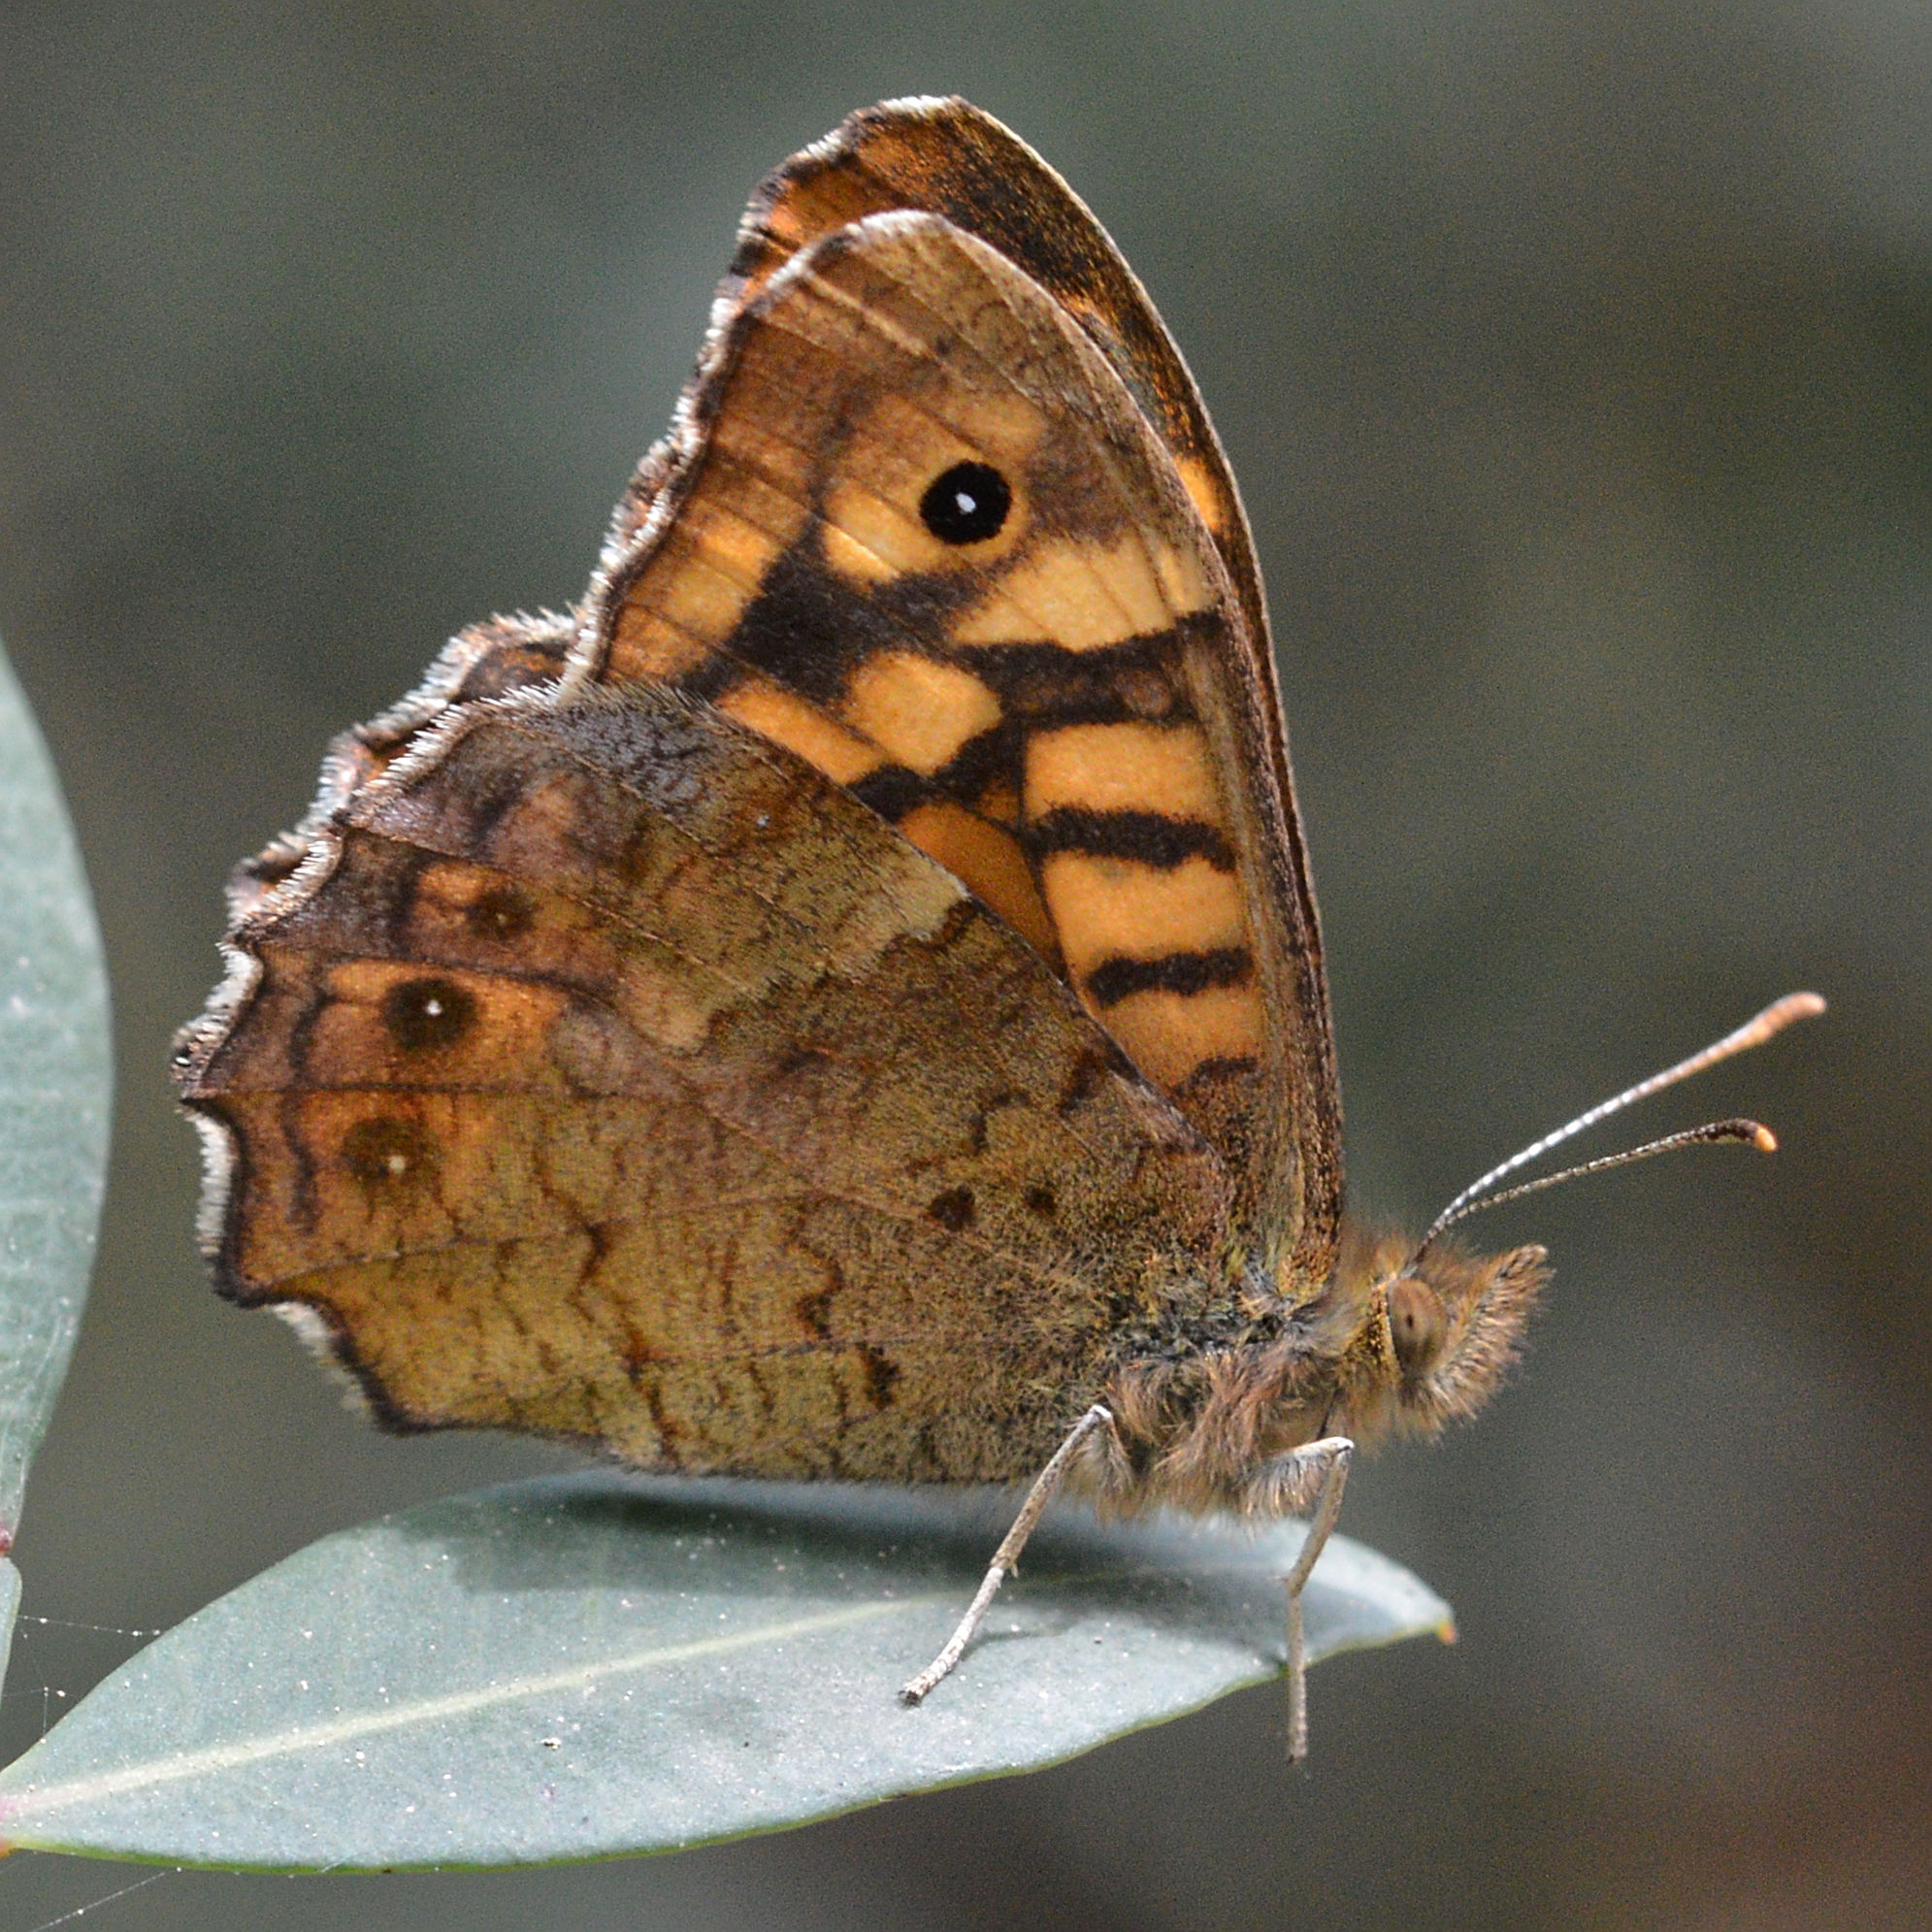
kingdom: Animalia
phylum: Arthropoda
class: Insecta
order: Lepidoptera
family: Nymphalidae
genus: Pararge
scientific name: Pararge aegeria
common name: Speckled wood
